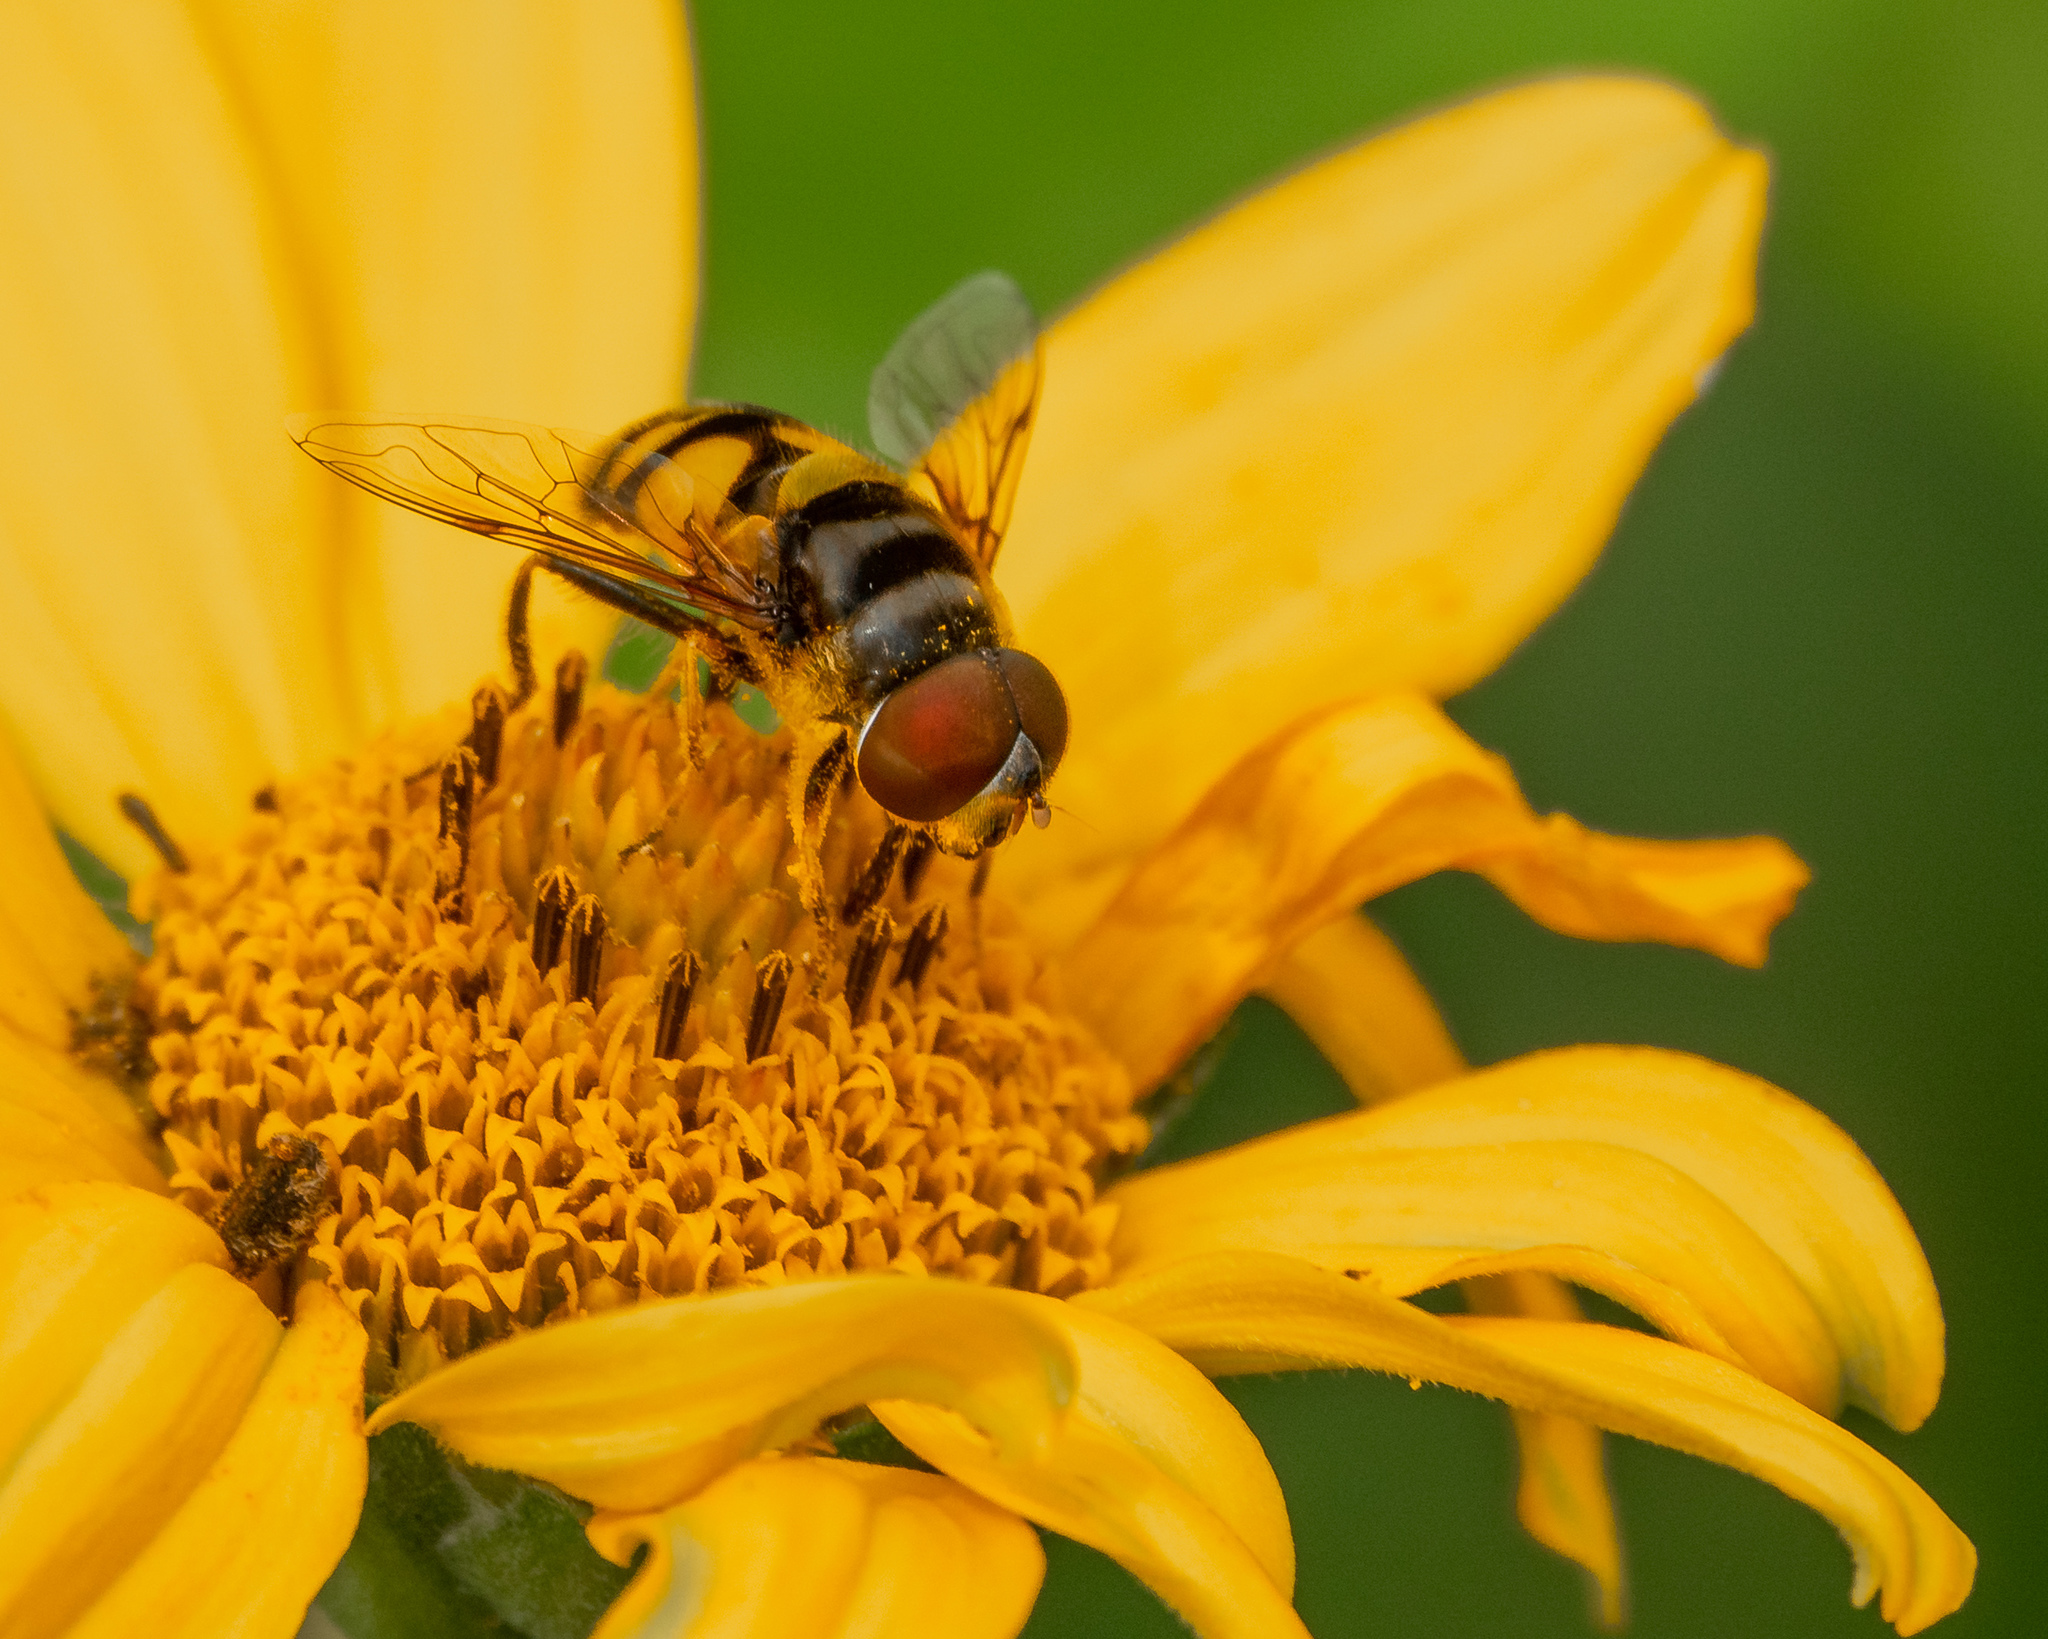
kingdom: Animalia
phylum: Arthropoda
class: Insecta
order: Diptera
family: Syrphidae
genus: Eristalis
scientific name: Eristalis transversa
